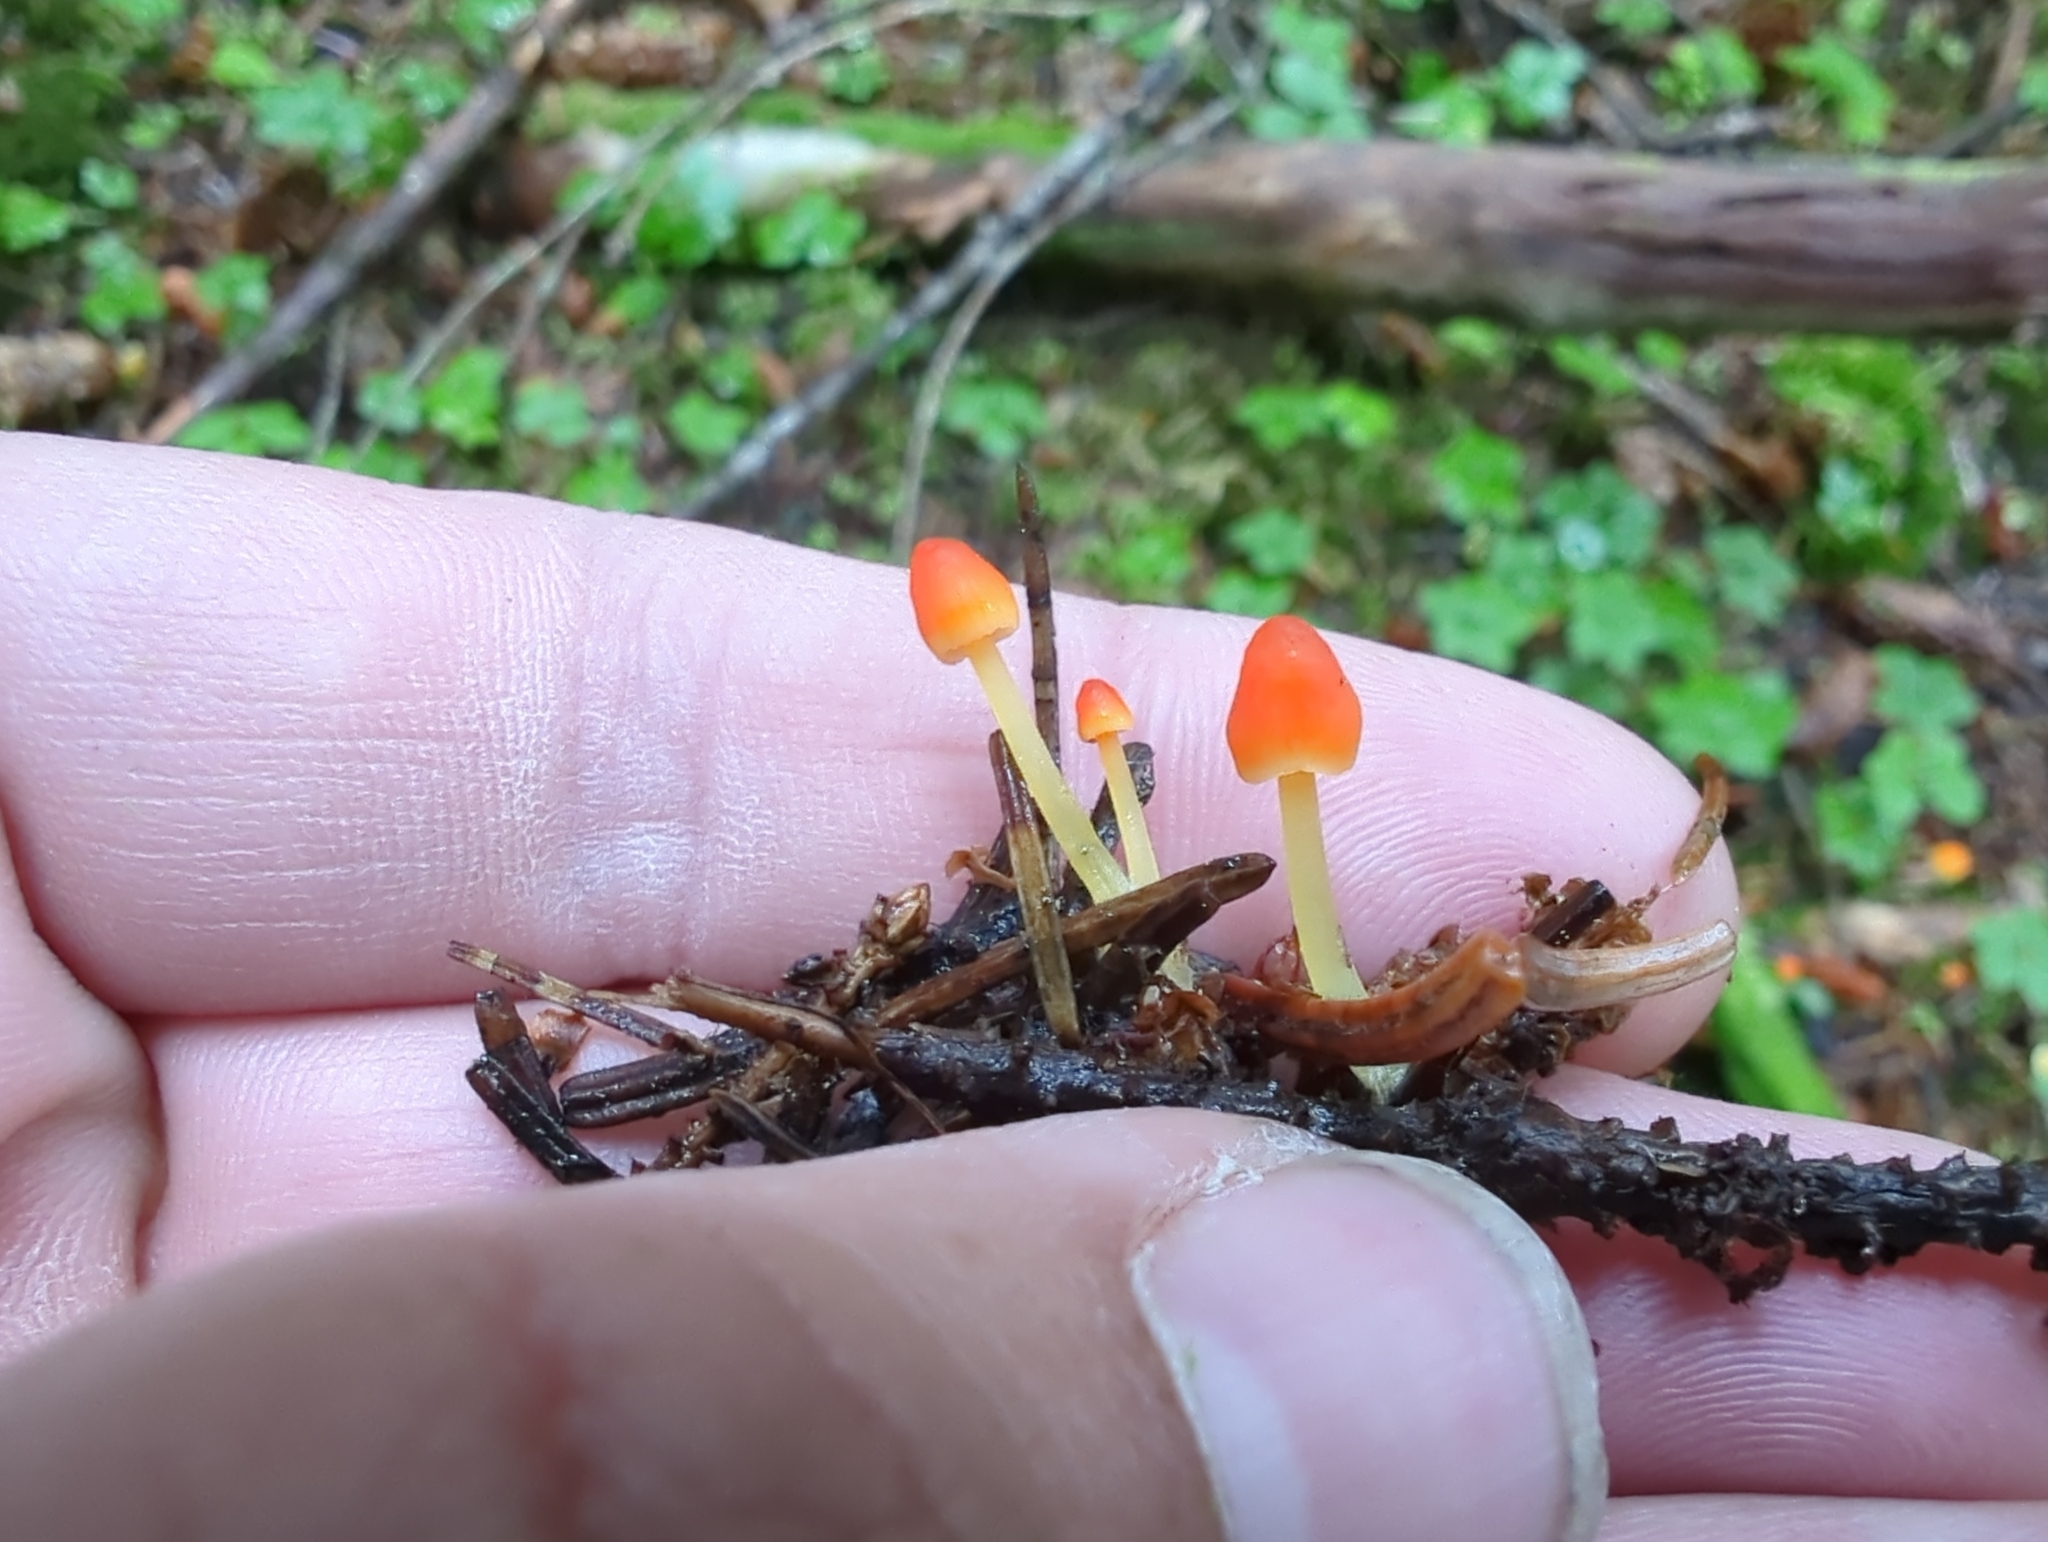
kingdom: Fungi
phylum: Basidiomycota
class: Agaricomycetes
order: Agaricales
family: Mycenaceae
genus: Atheniella
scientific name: Atheniella aurantiidisca
